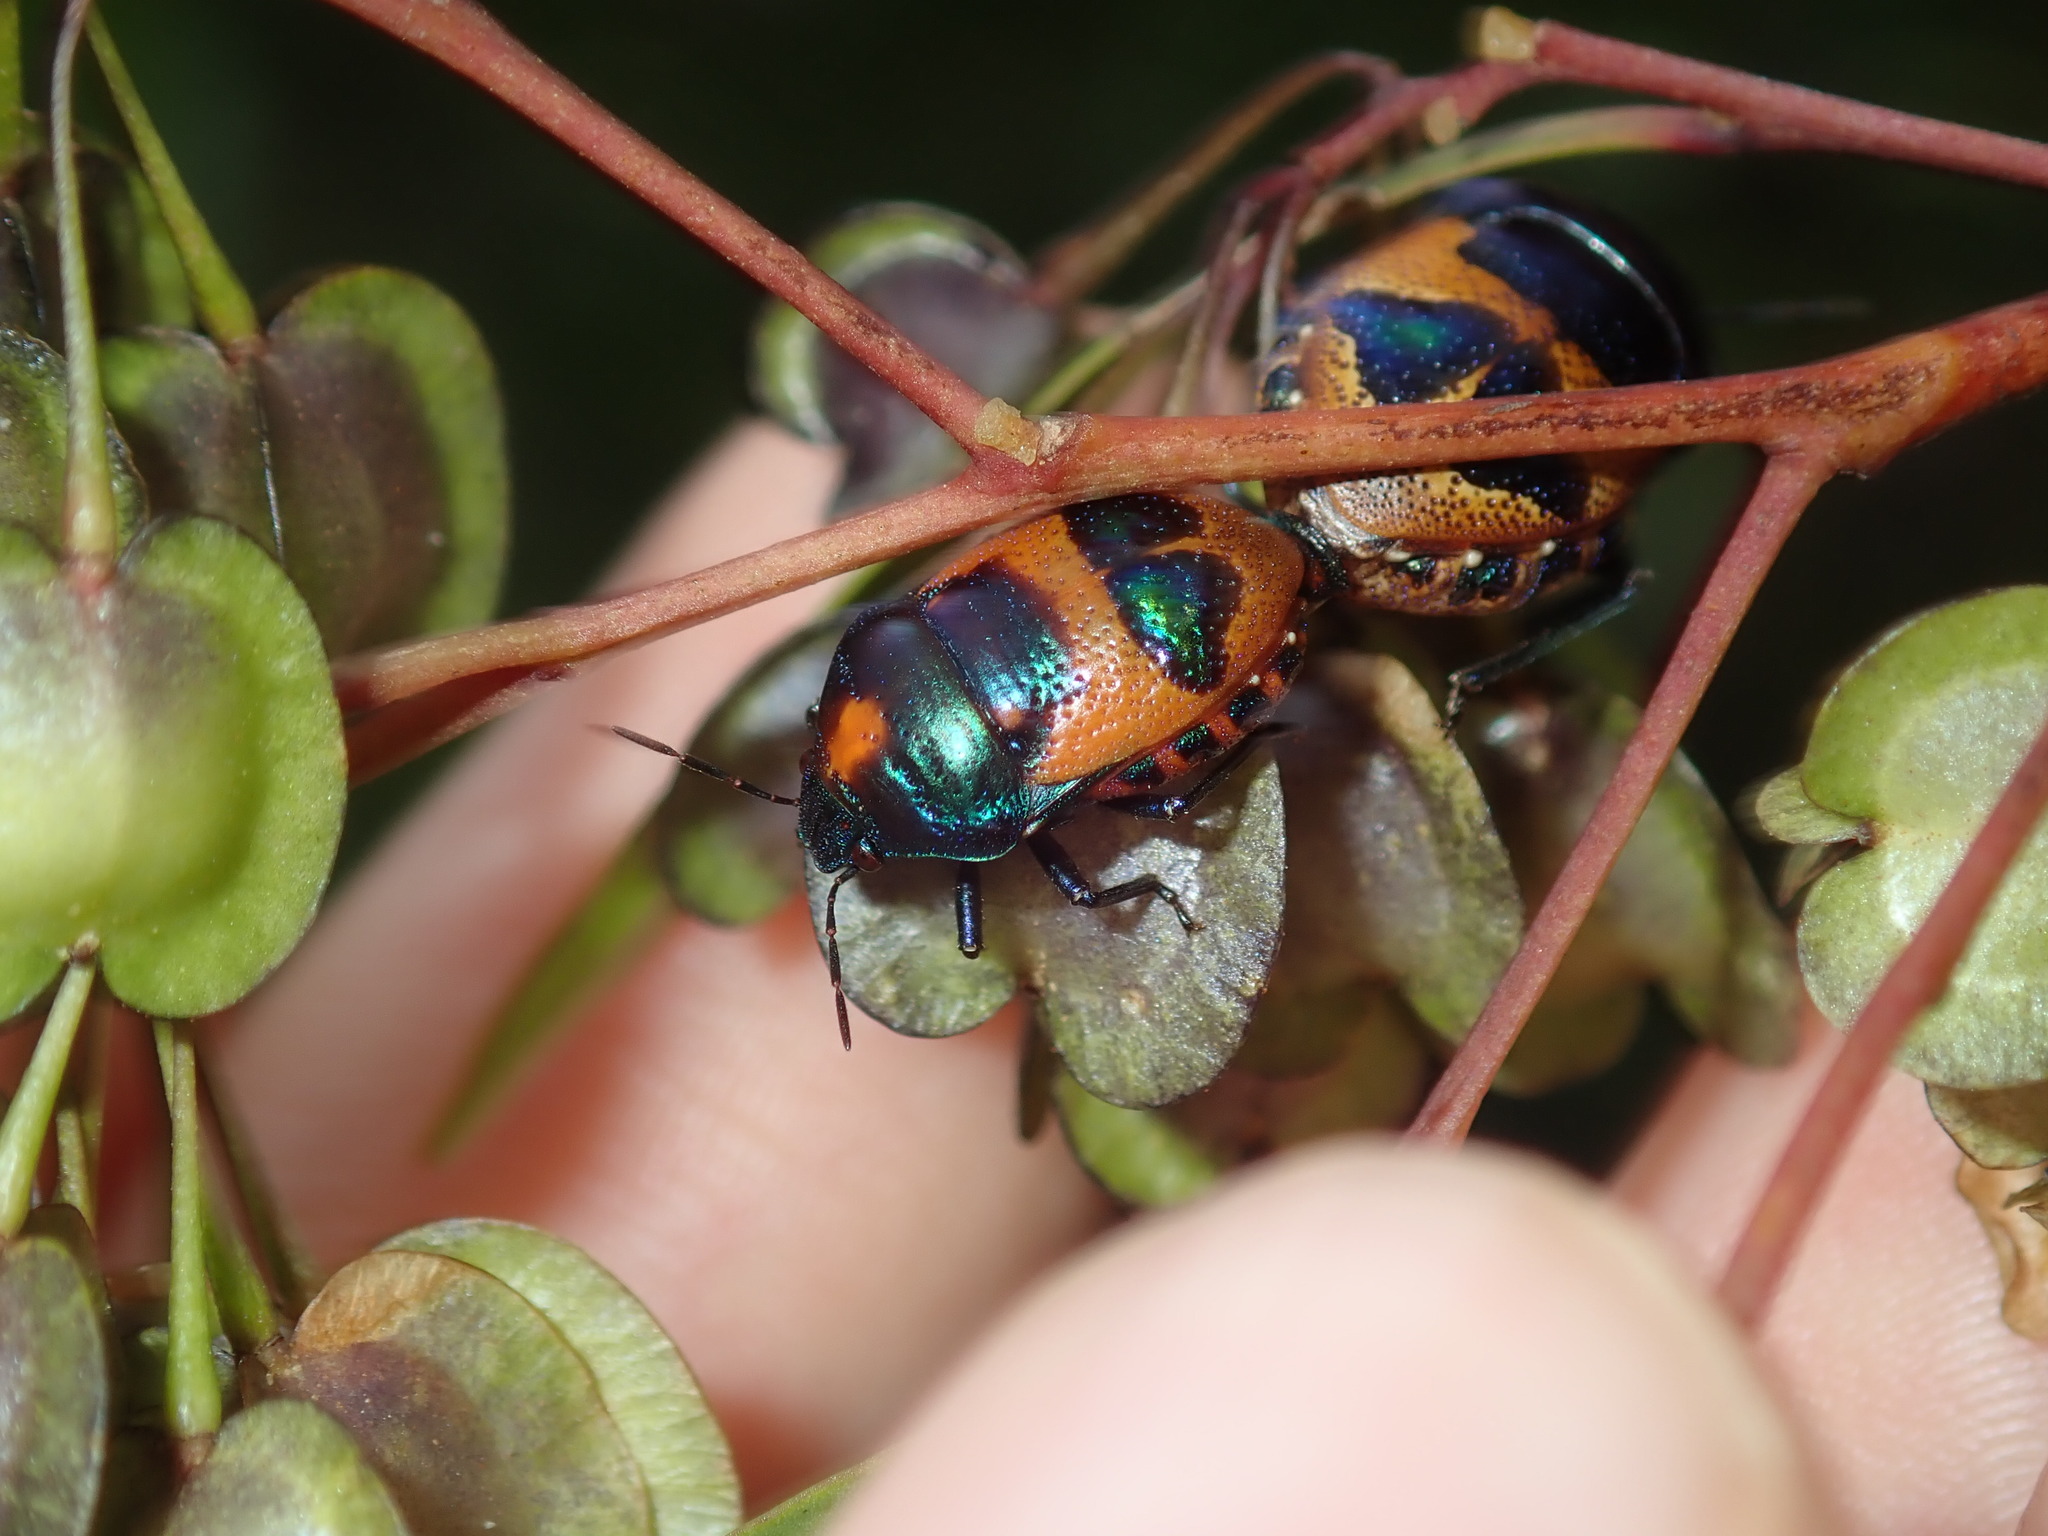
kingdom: Animalia
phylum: Arthropoda
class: Insecta
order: Hemiptera
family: Scutelleridae
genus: Choerocoris
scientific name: Choerocoris paganus
